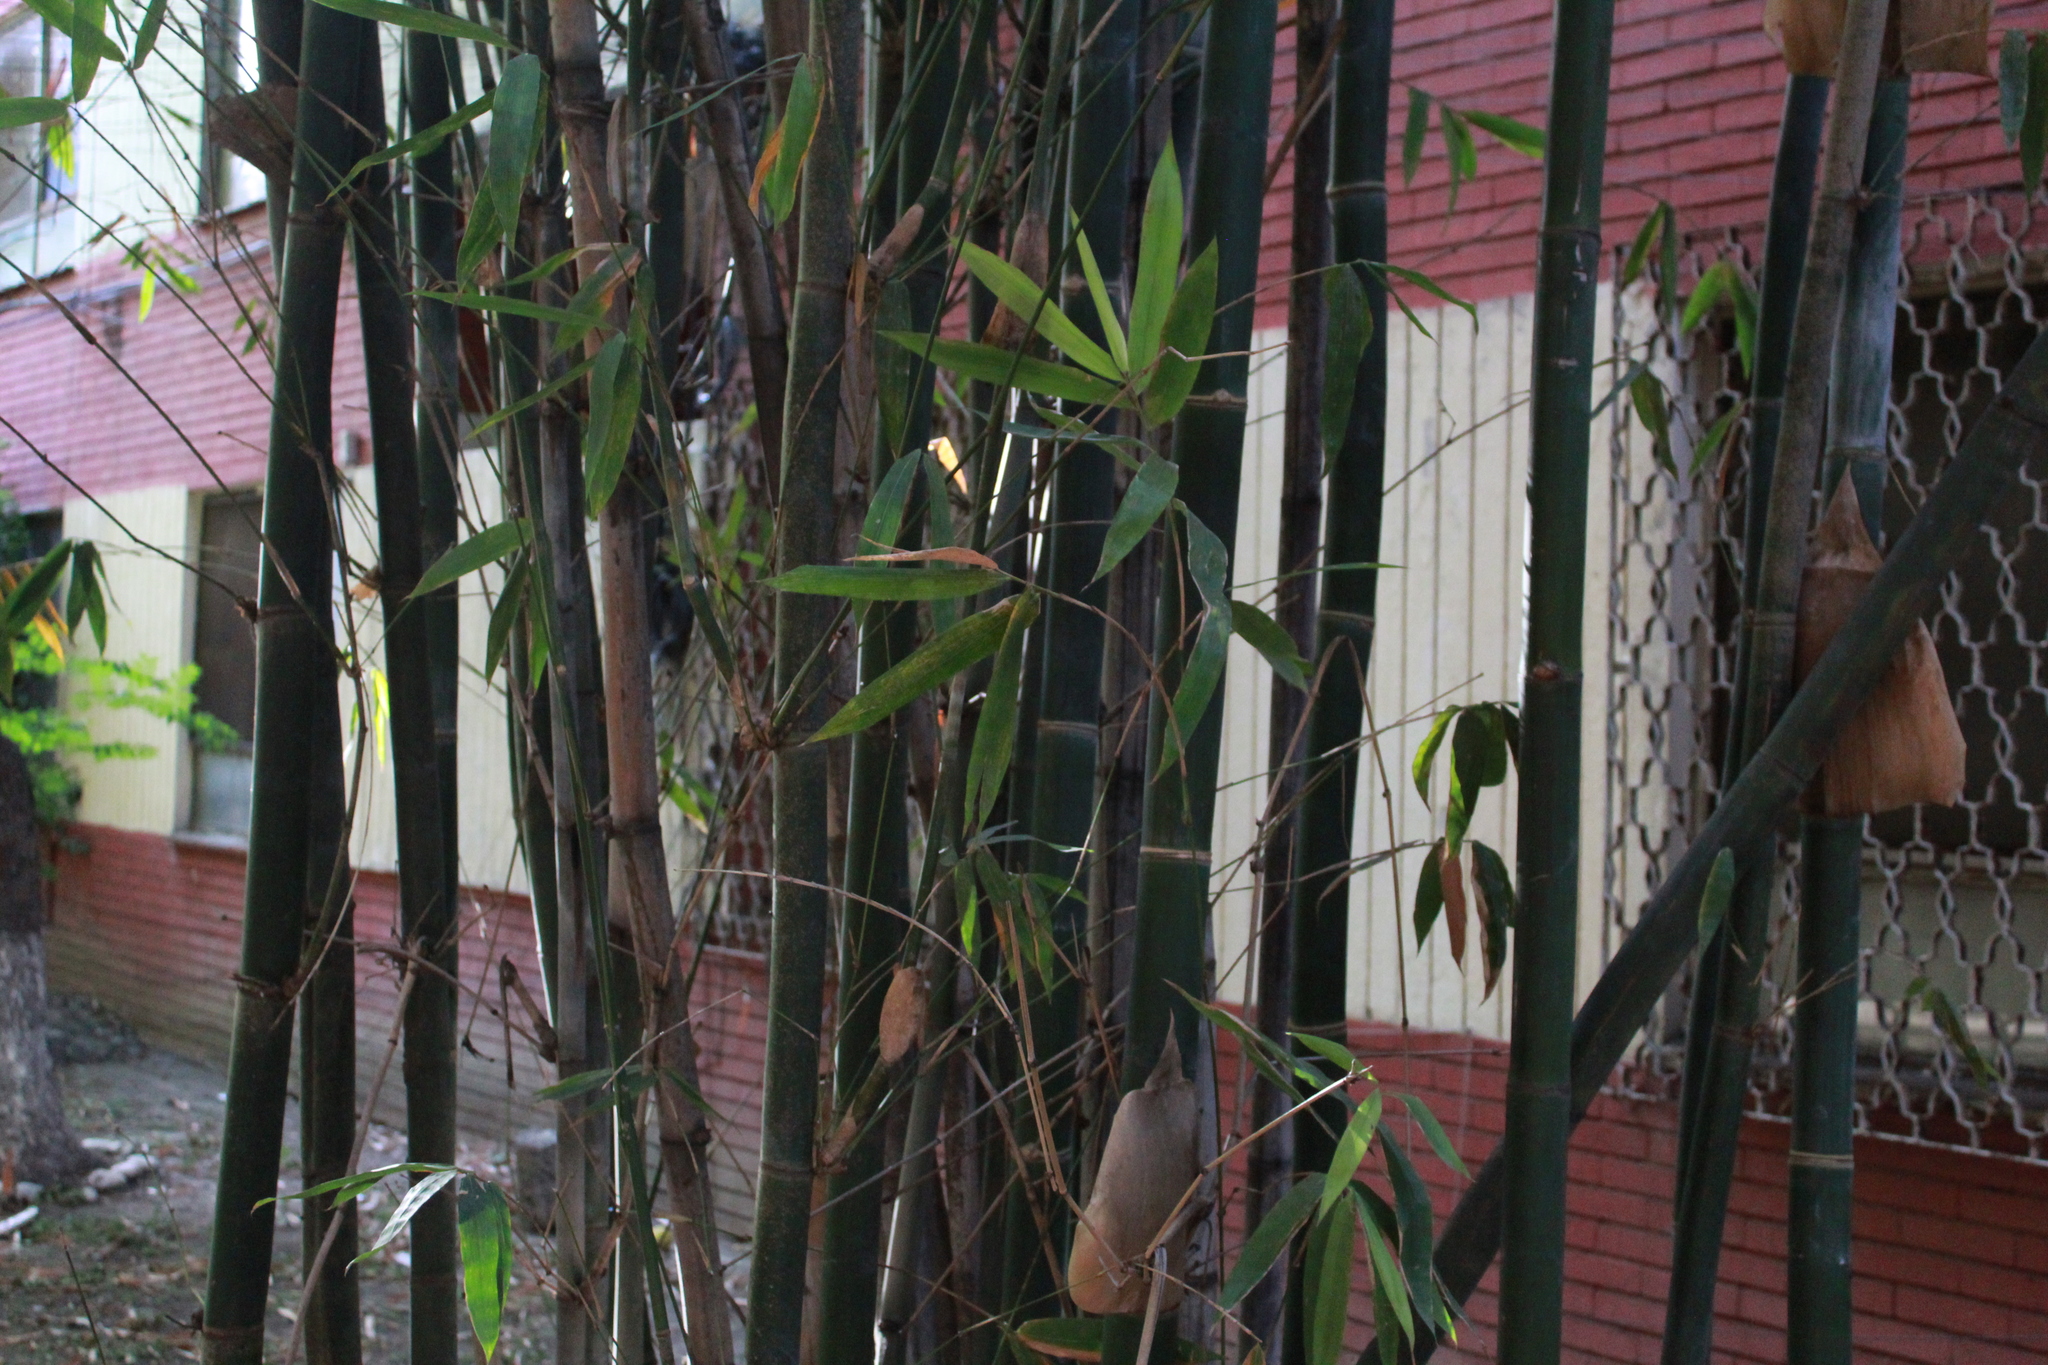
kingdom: Plantae
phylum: Tracheophyta
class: Liliopsida
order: Poales
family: Poaceae
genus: Phyllostachys
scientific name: Phyllostachys aurea
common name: Golden bamboo
